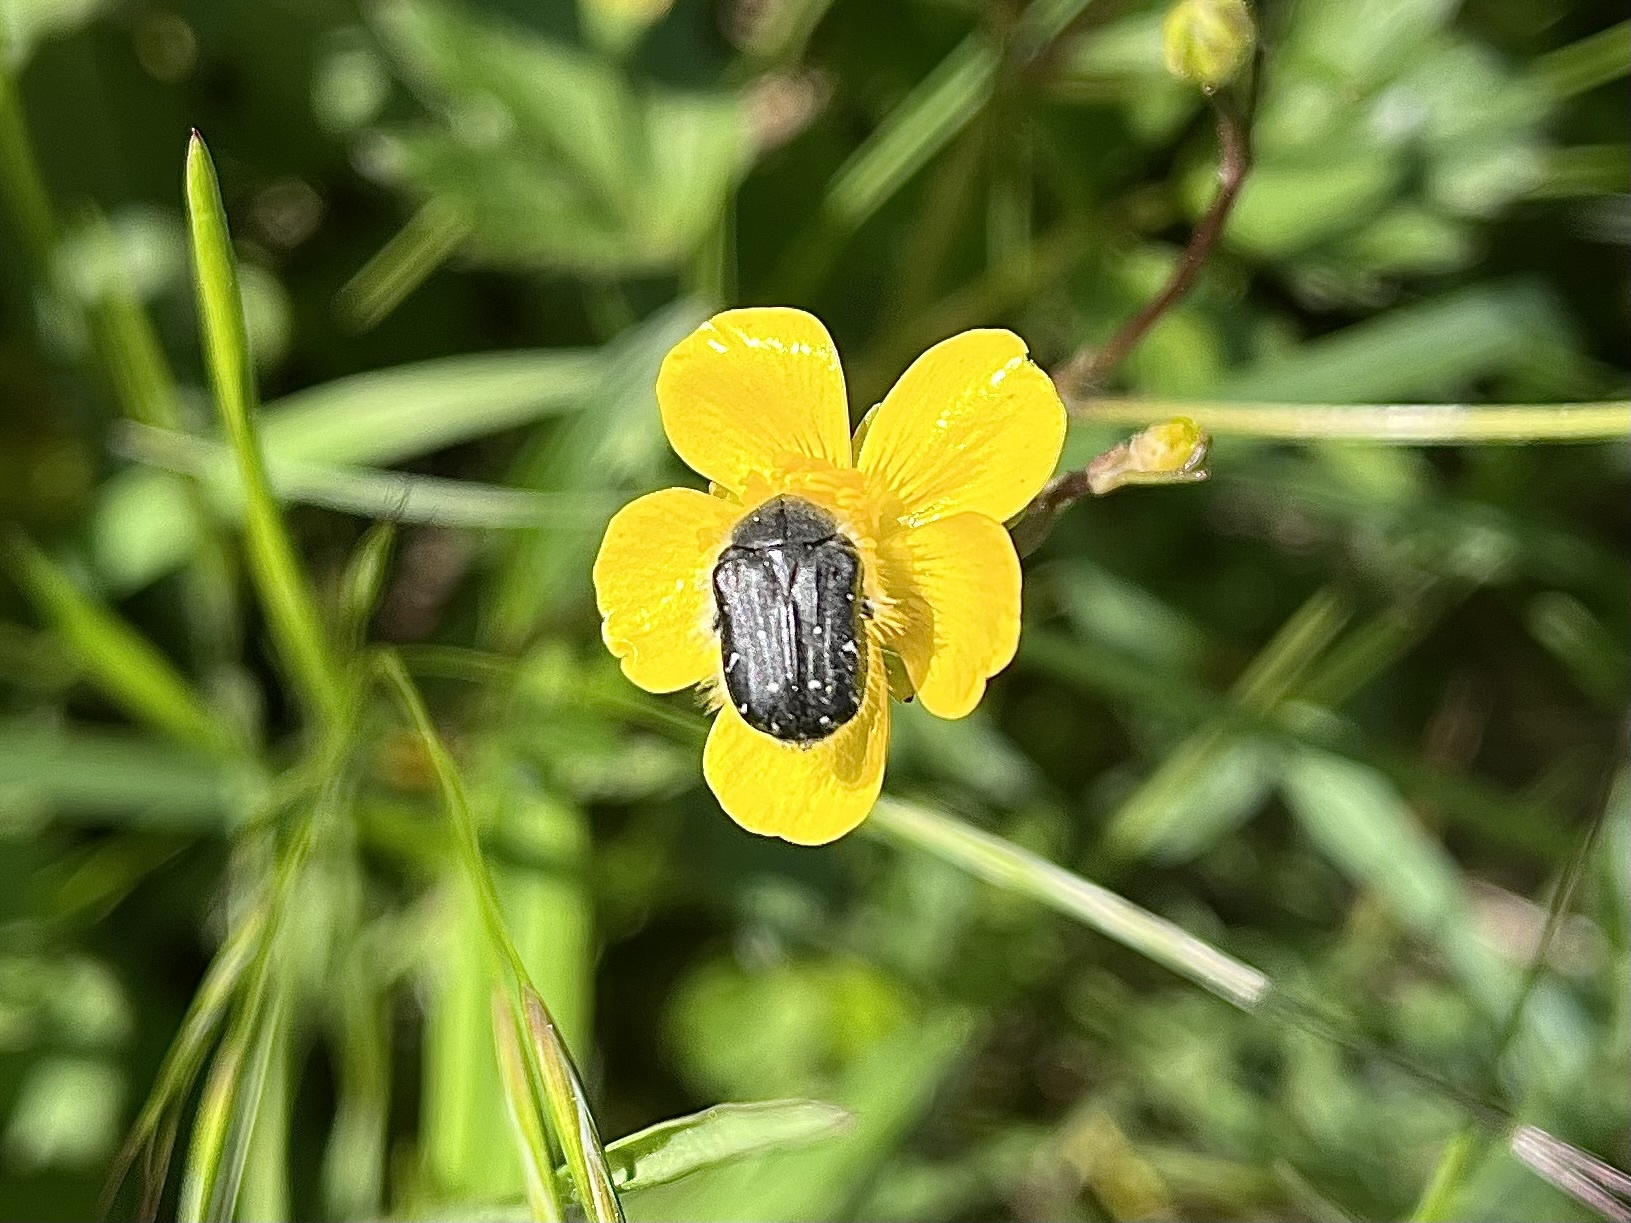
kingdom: Animalia
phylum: Arthropoda
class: Insecta
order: Coleoptera
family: Scarabaeidae
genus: Tropinota
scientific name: Tropinota hirta
